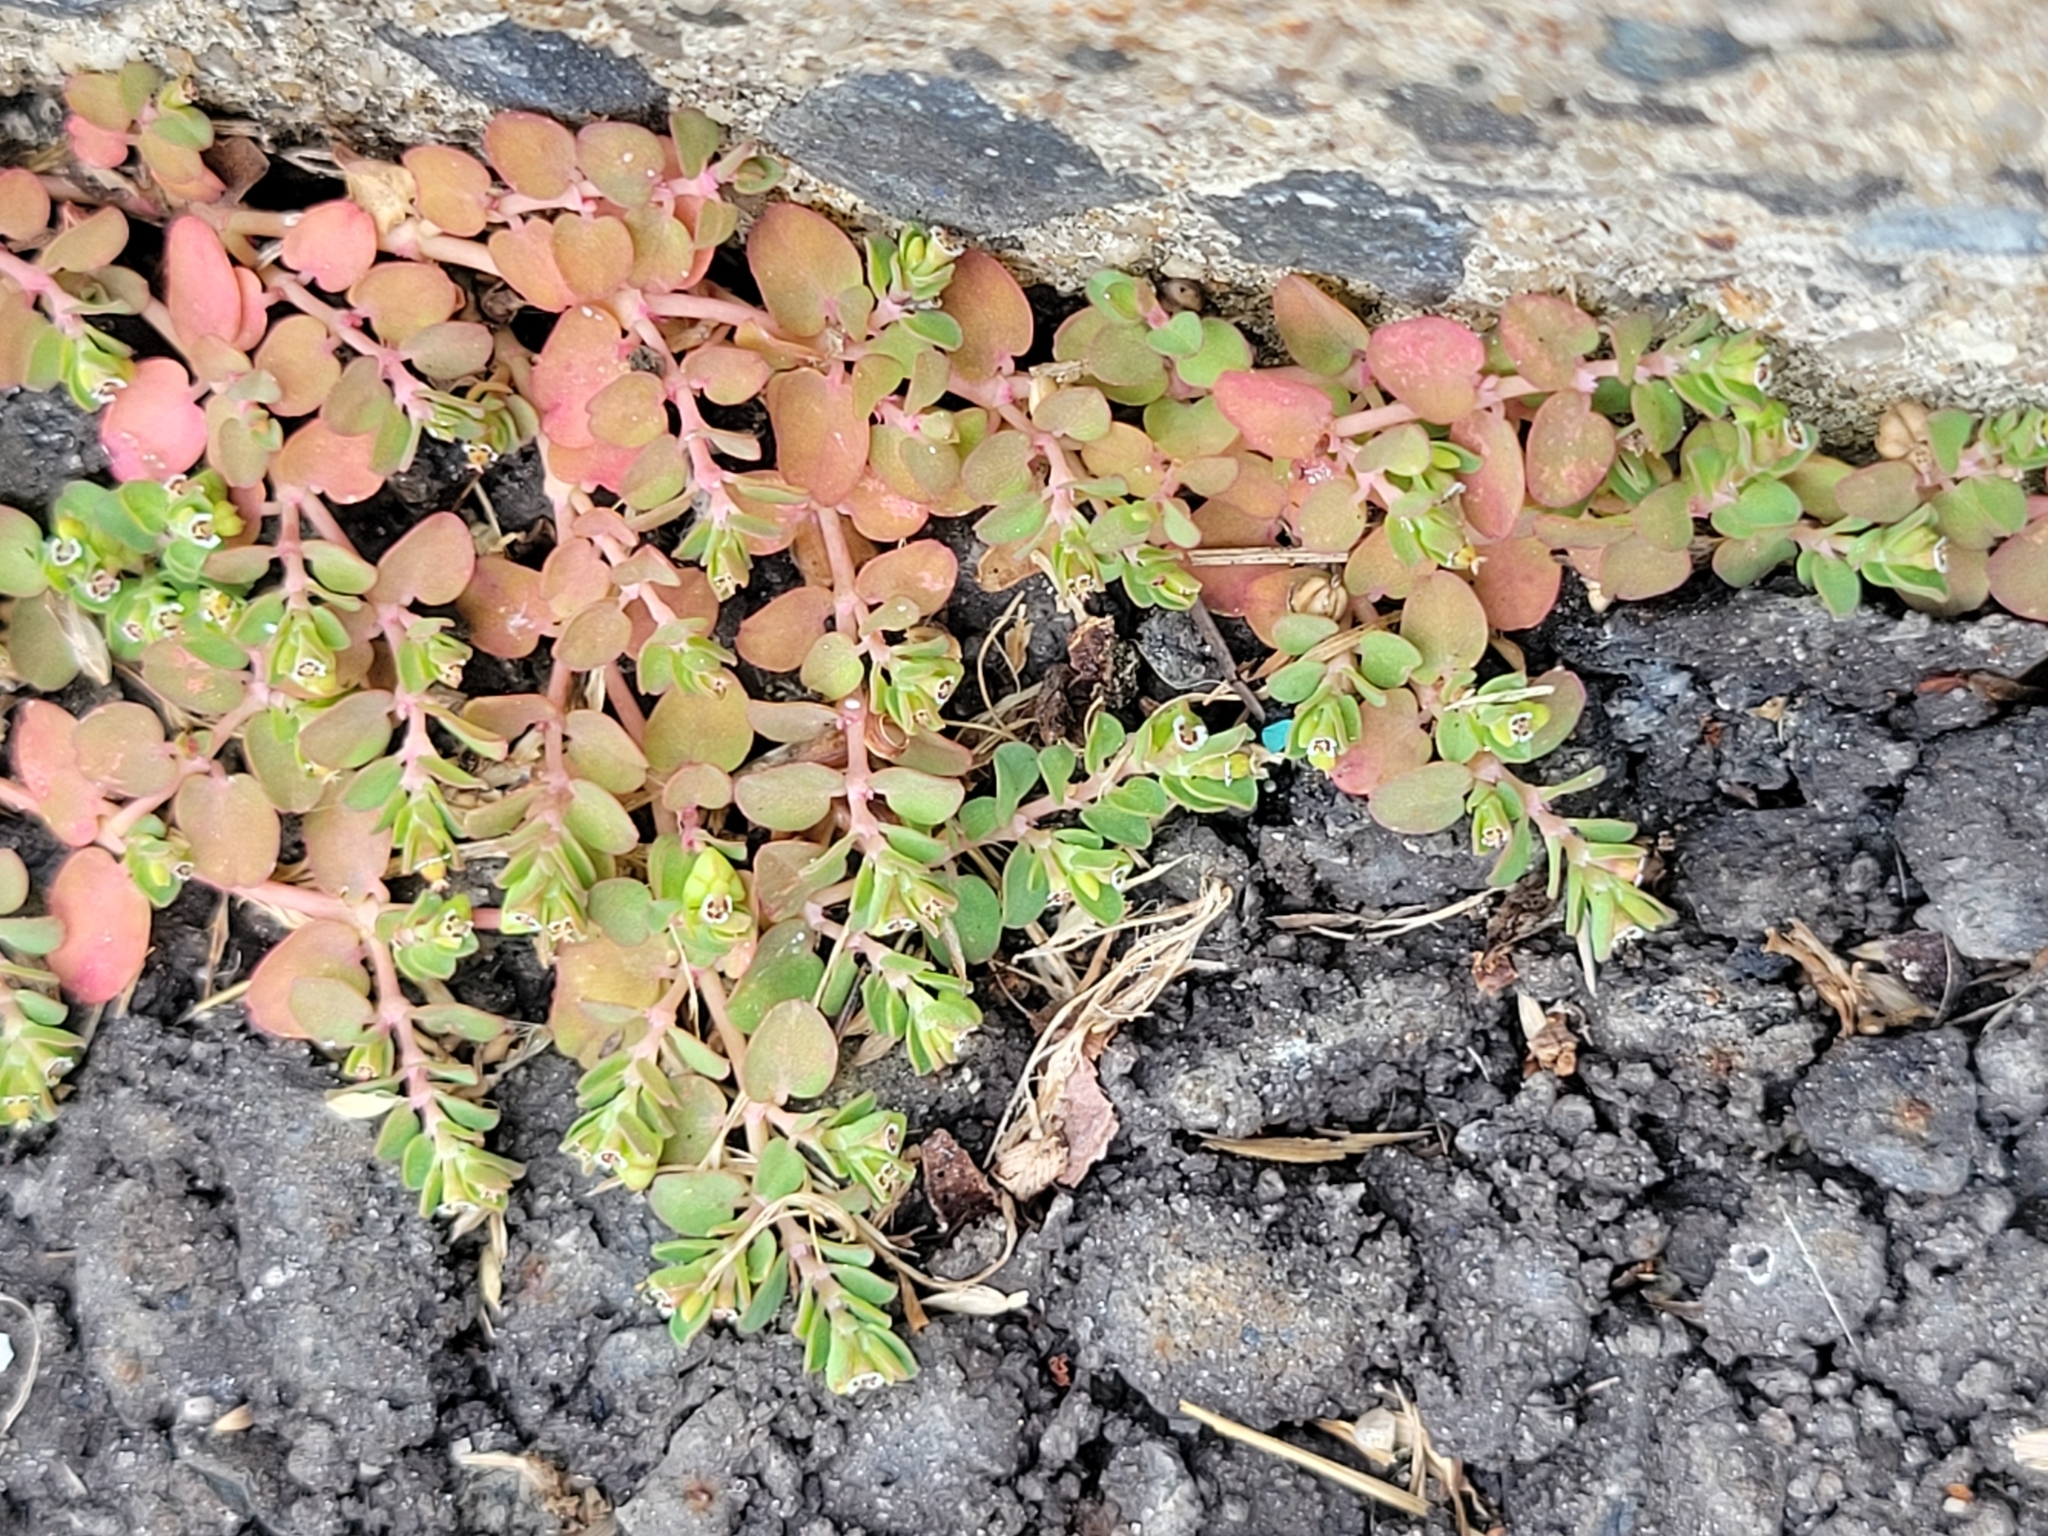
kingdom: Plantae
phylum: Tracheophyta
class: Magnoliopsida
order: Malpighiales
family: Euphorbiaceae
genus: Euphorbia
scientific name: Euphorbia serpens
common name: Matted sandmat
